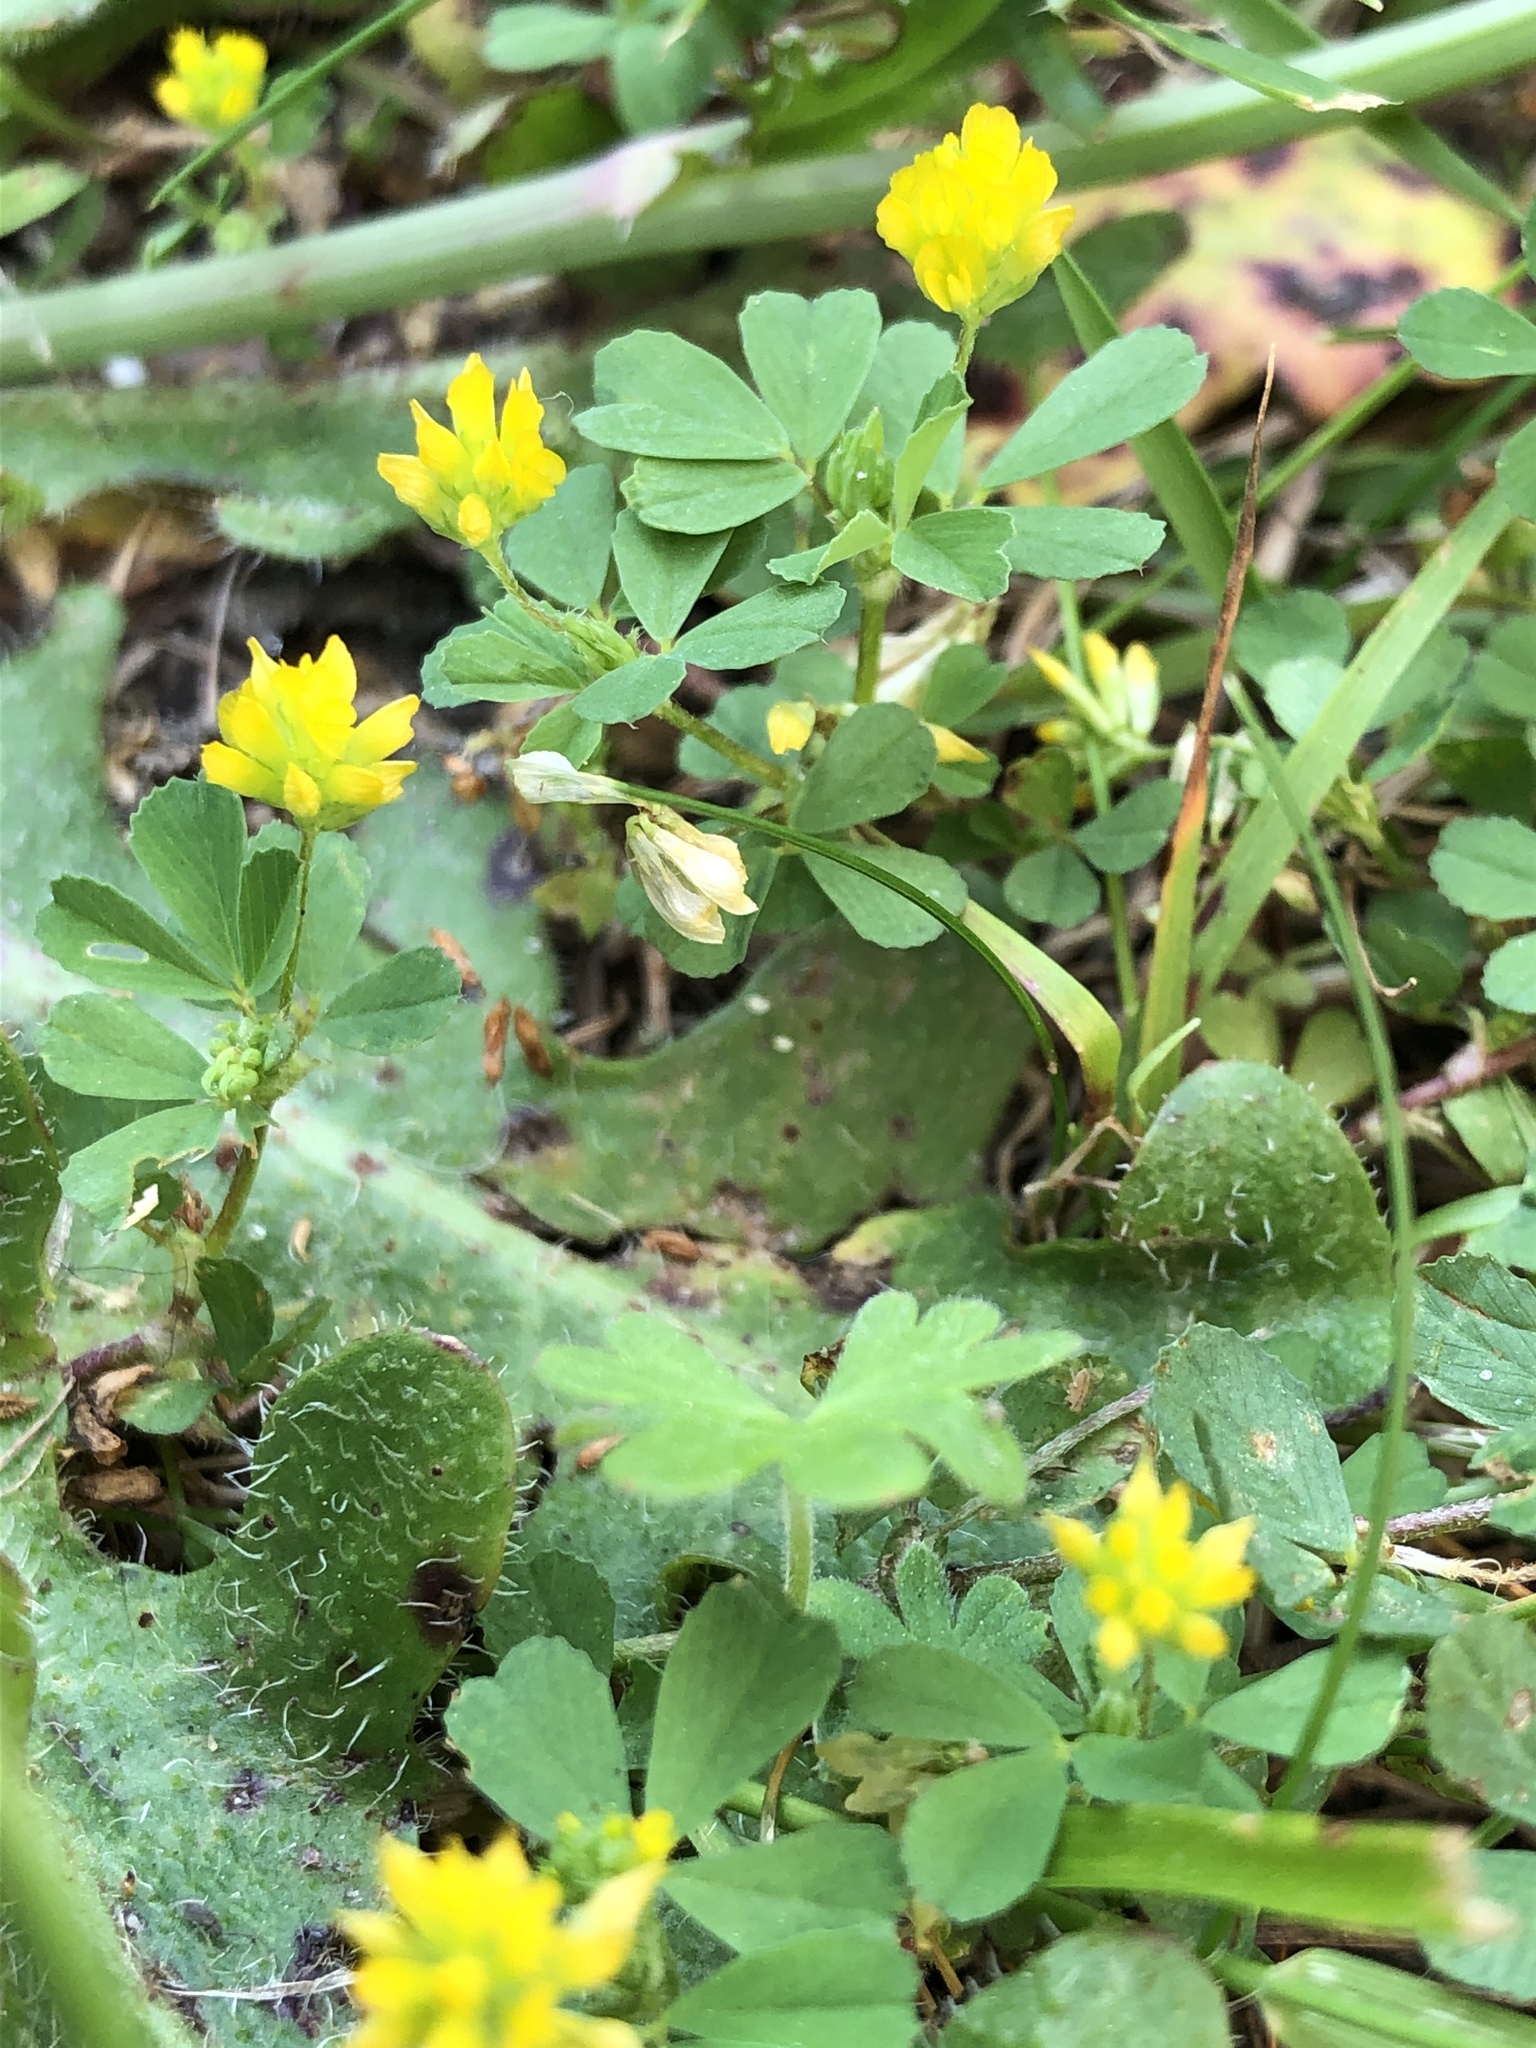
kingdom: Plantae
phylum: Tracheophyta
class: Magnoliopsida
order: Fabales
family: Fabaceae
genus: Trifolium
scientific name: Trifolium dubium
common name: Suckling clover
